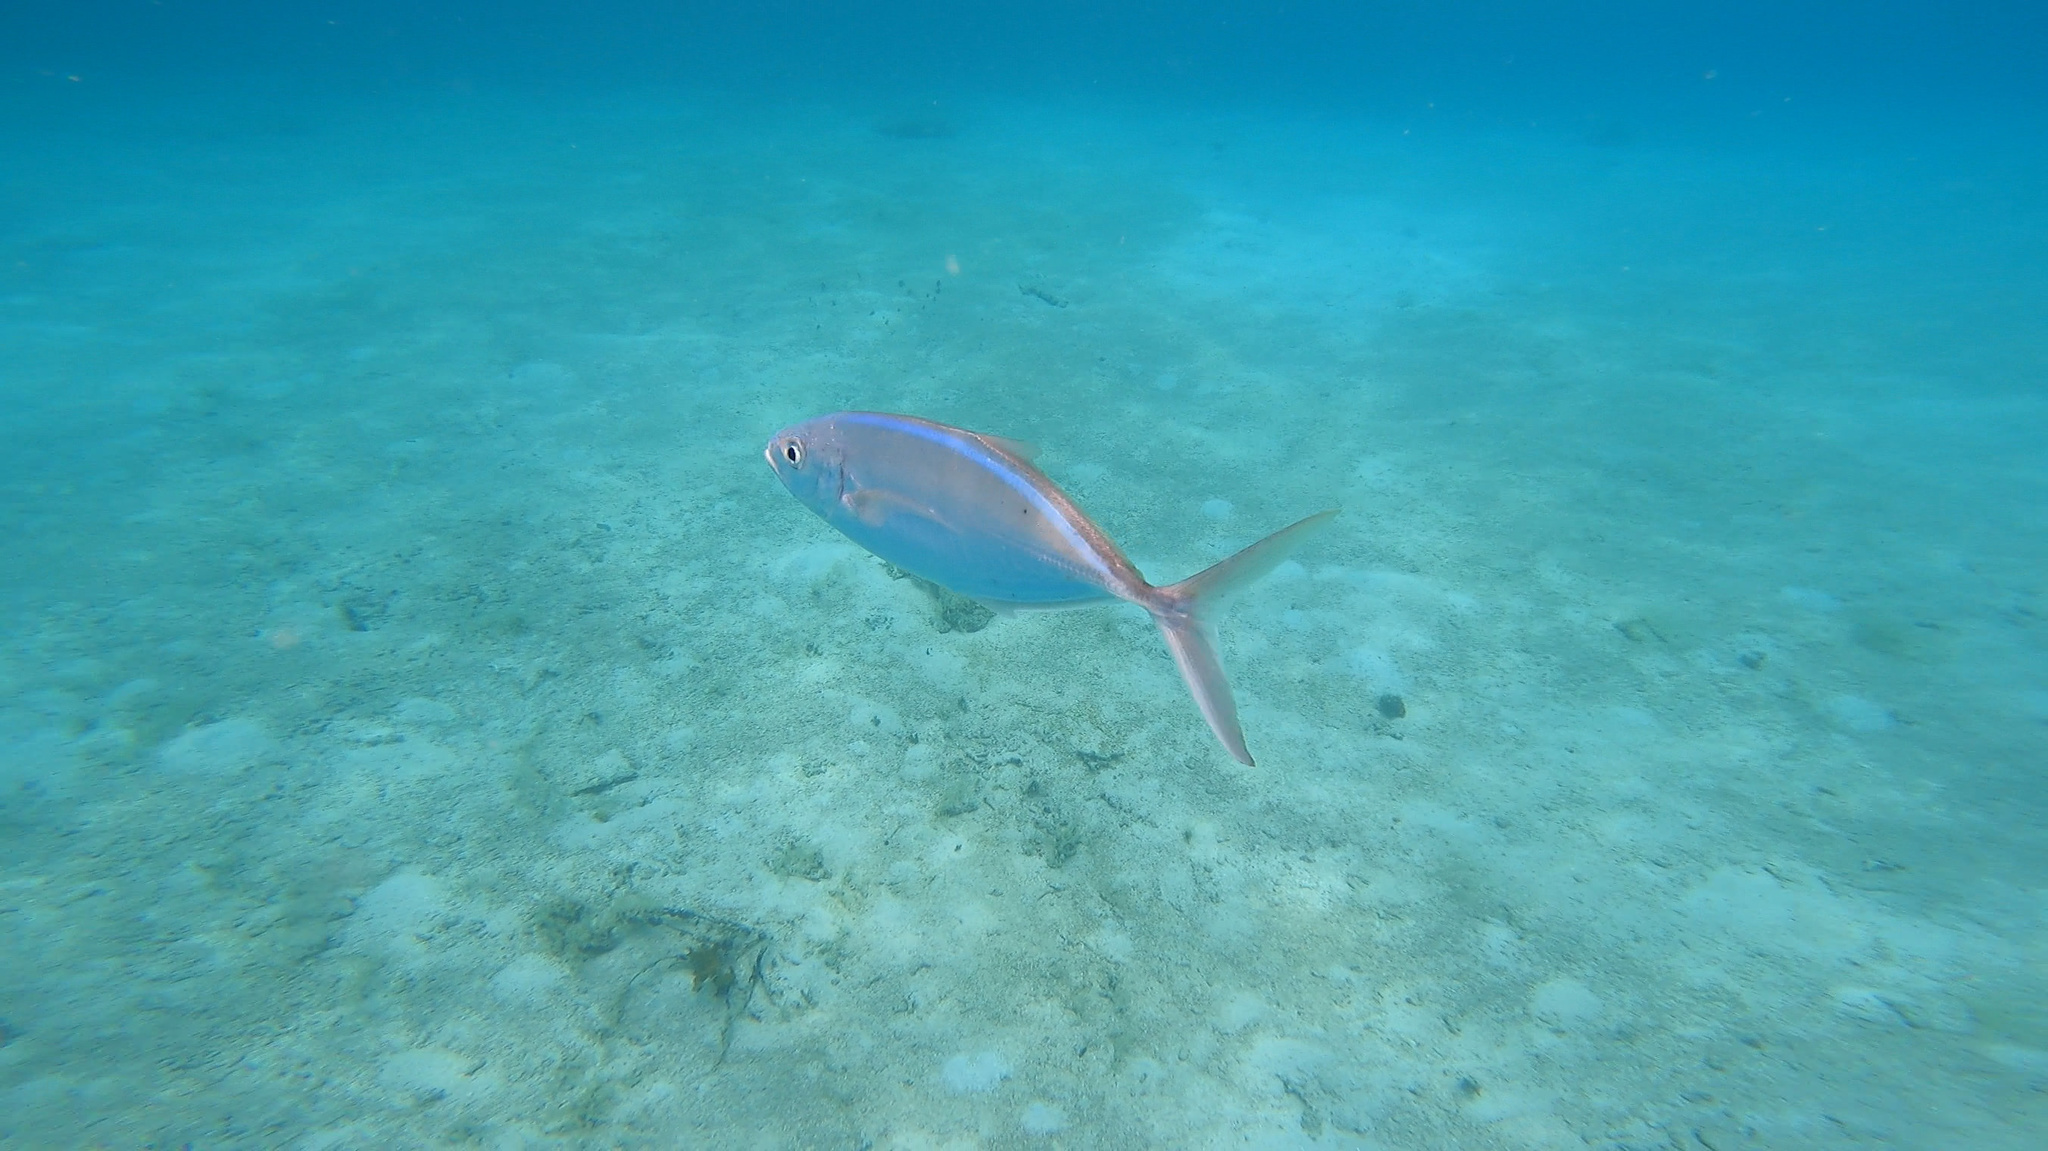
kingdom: Animalia
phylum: Chordata
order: Perciformes
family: Carangidae
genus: Caranx
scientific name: Caranx ruber
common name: Bar jack
